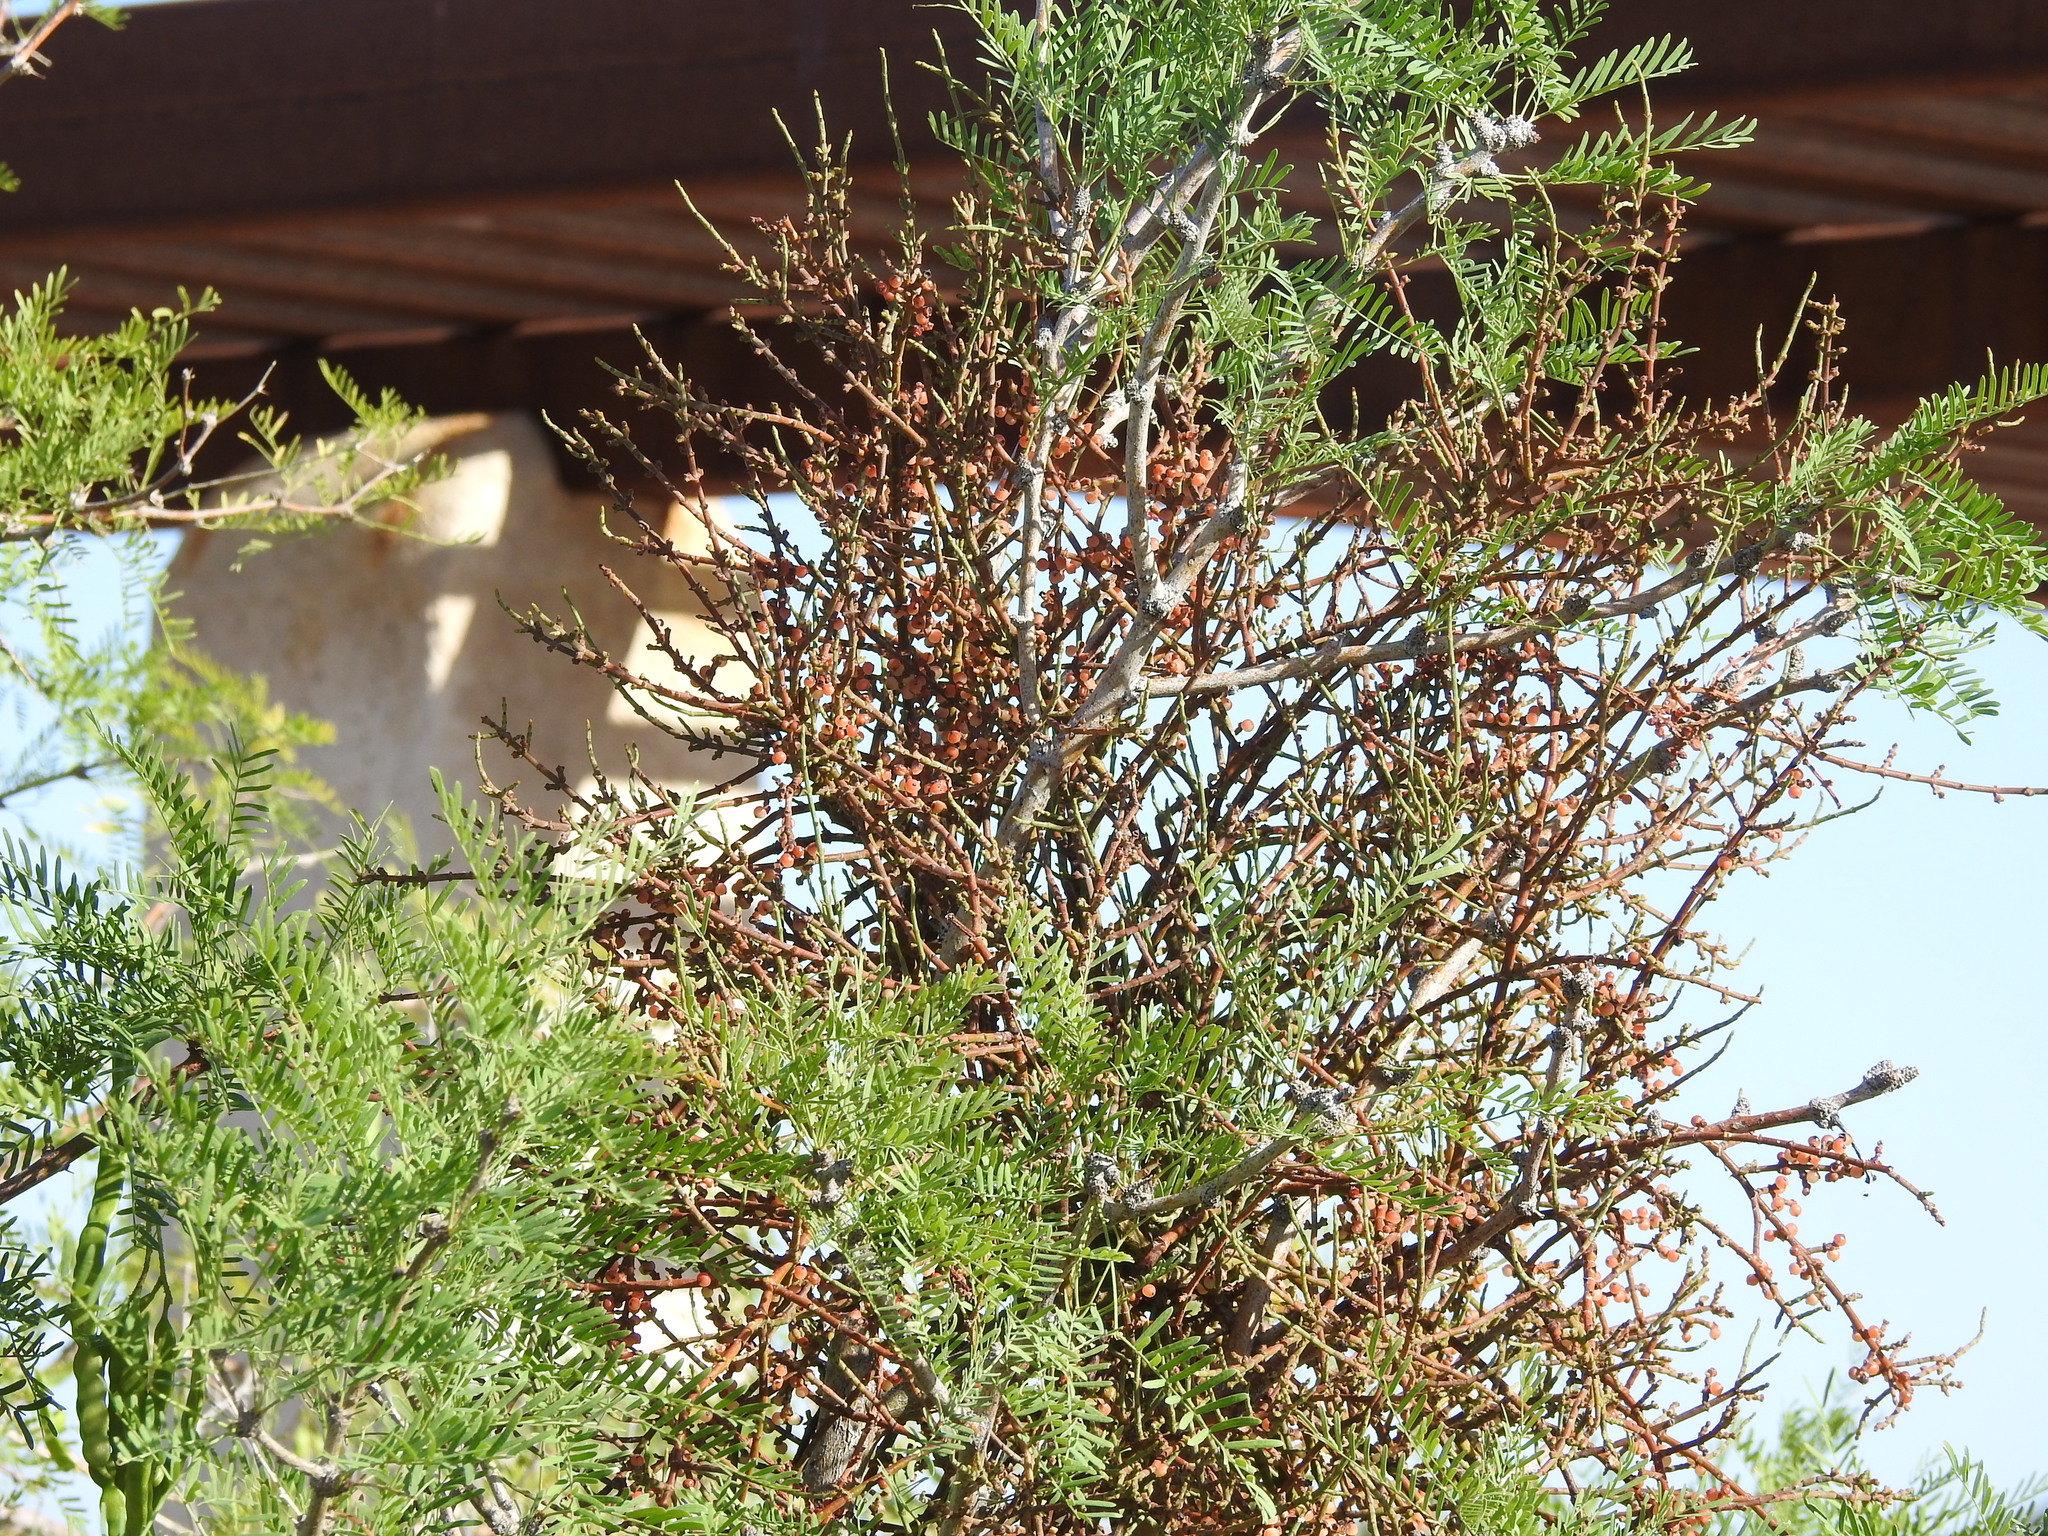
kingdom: Plantae
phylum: Tracheophyta
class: Magnoliopsida
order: Santalales
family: Viscaceae
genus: Phoradendron
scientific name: Phoradendron californicum
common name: Acacia mistletoe
